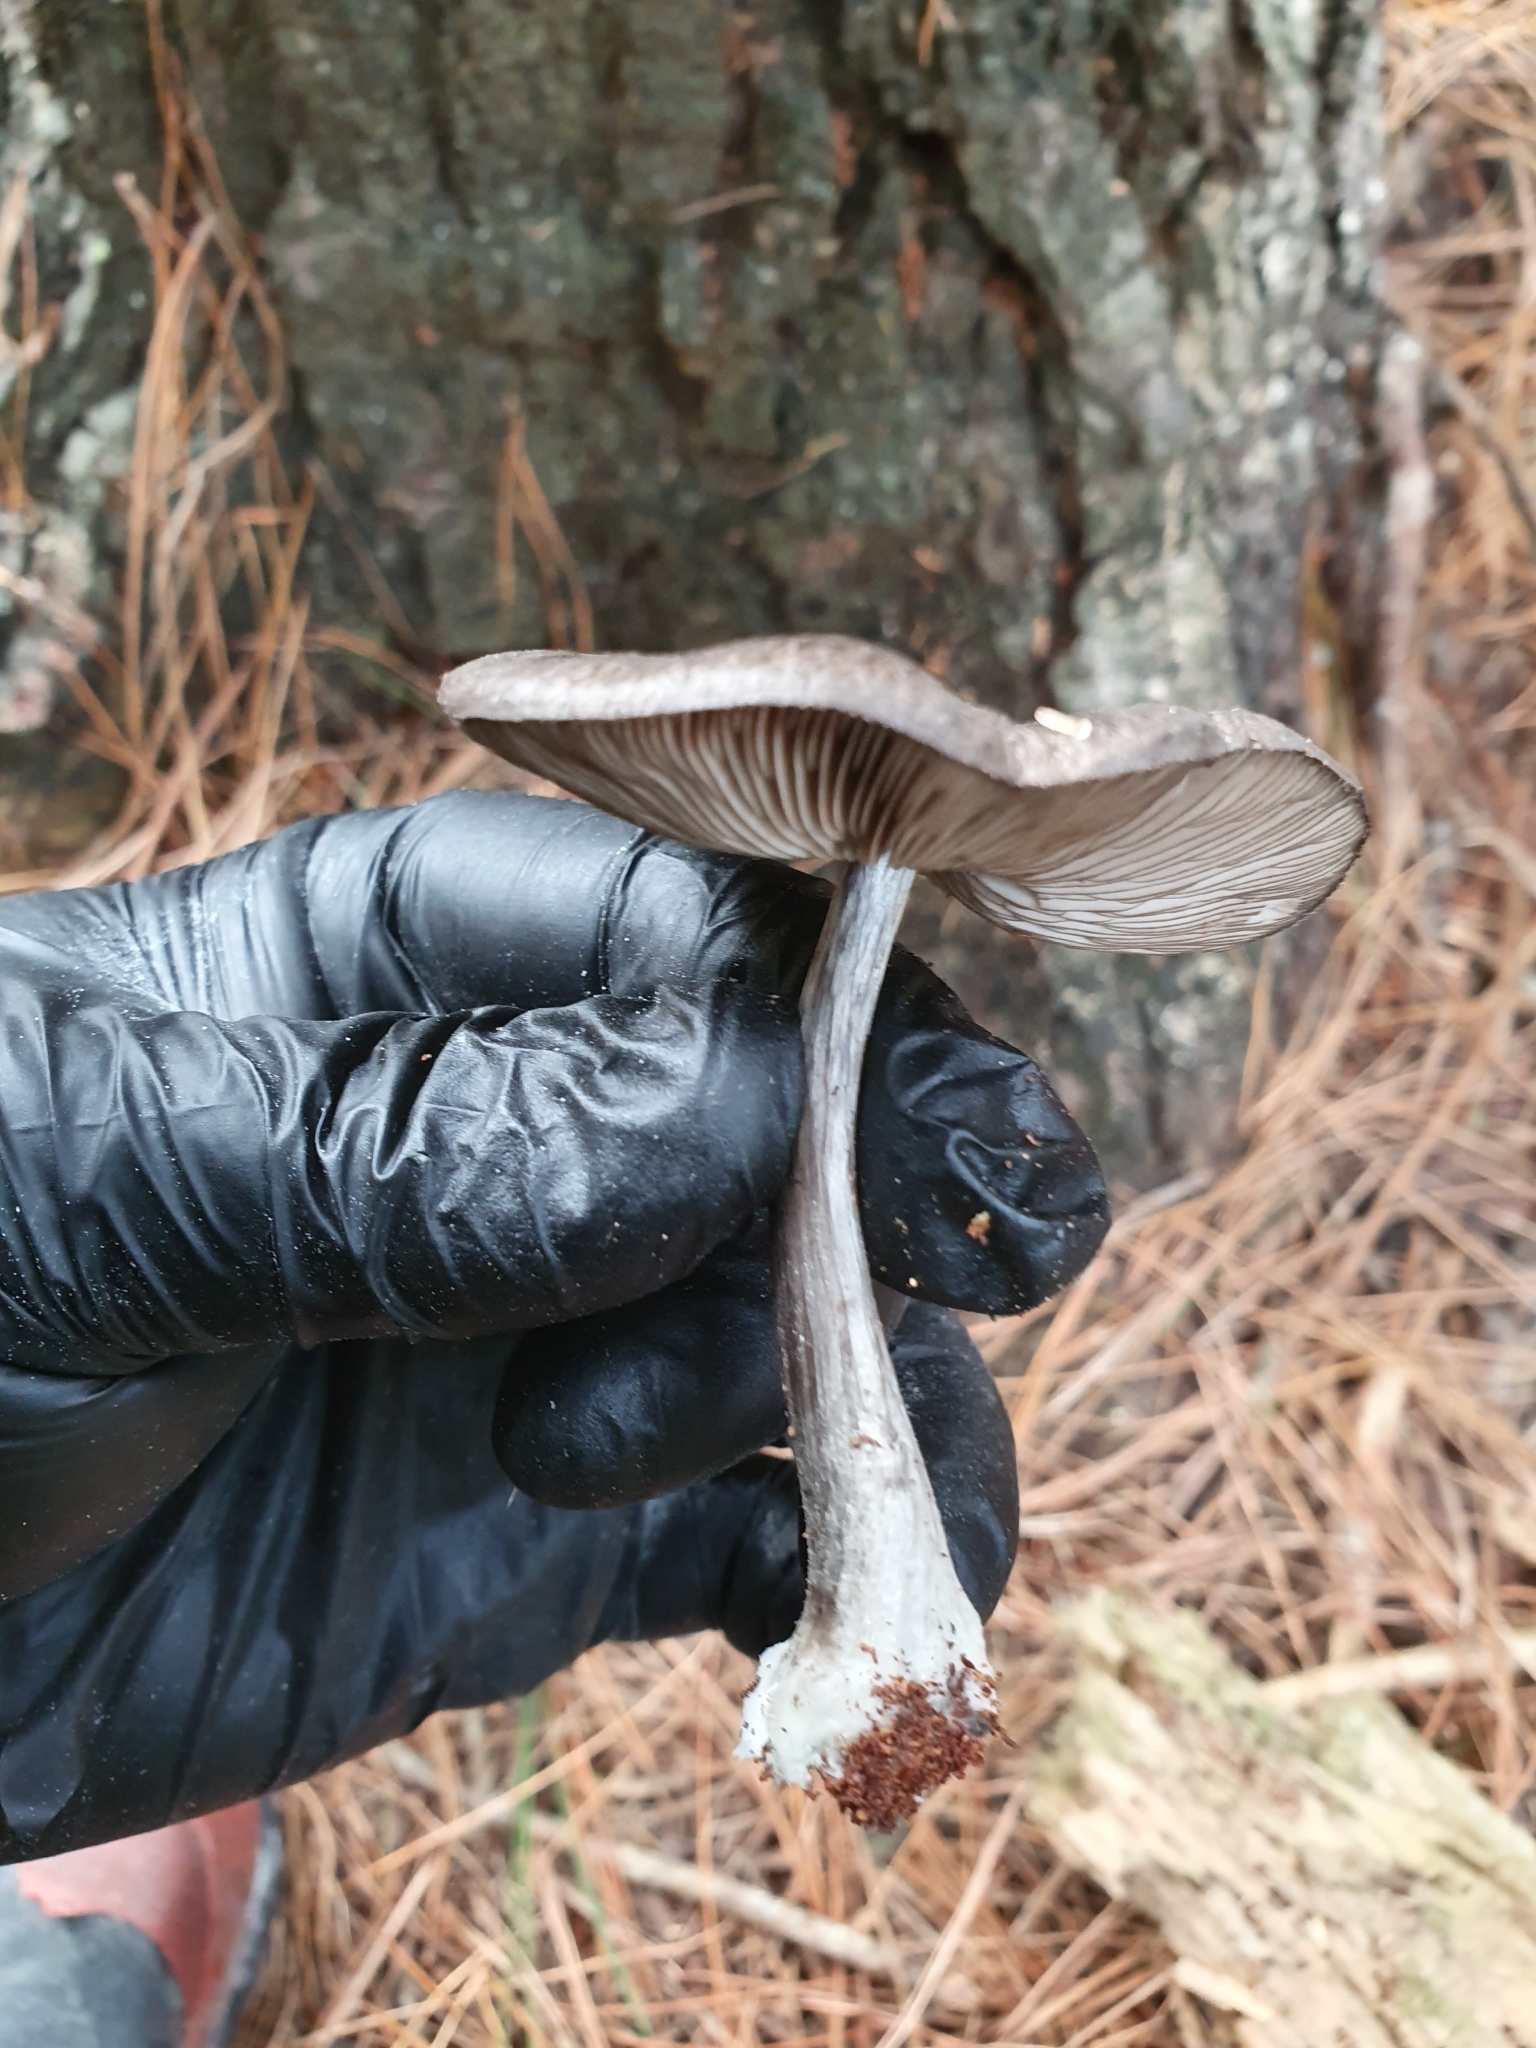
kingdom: Fungi
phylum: Basidiomycota
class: Agaricomycetes
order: Agaricales
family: Pluteaceae
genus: Pluteus
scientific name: Pluteus velutinornatus
